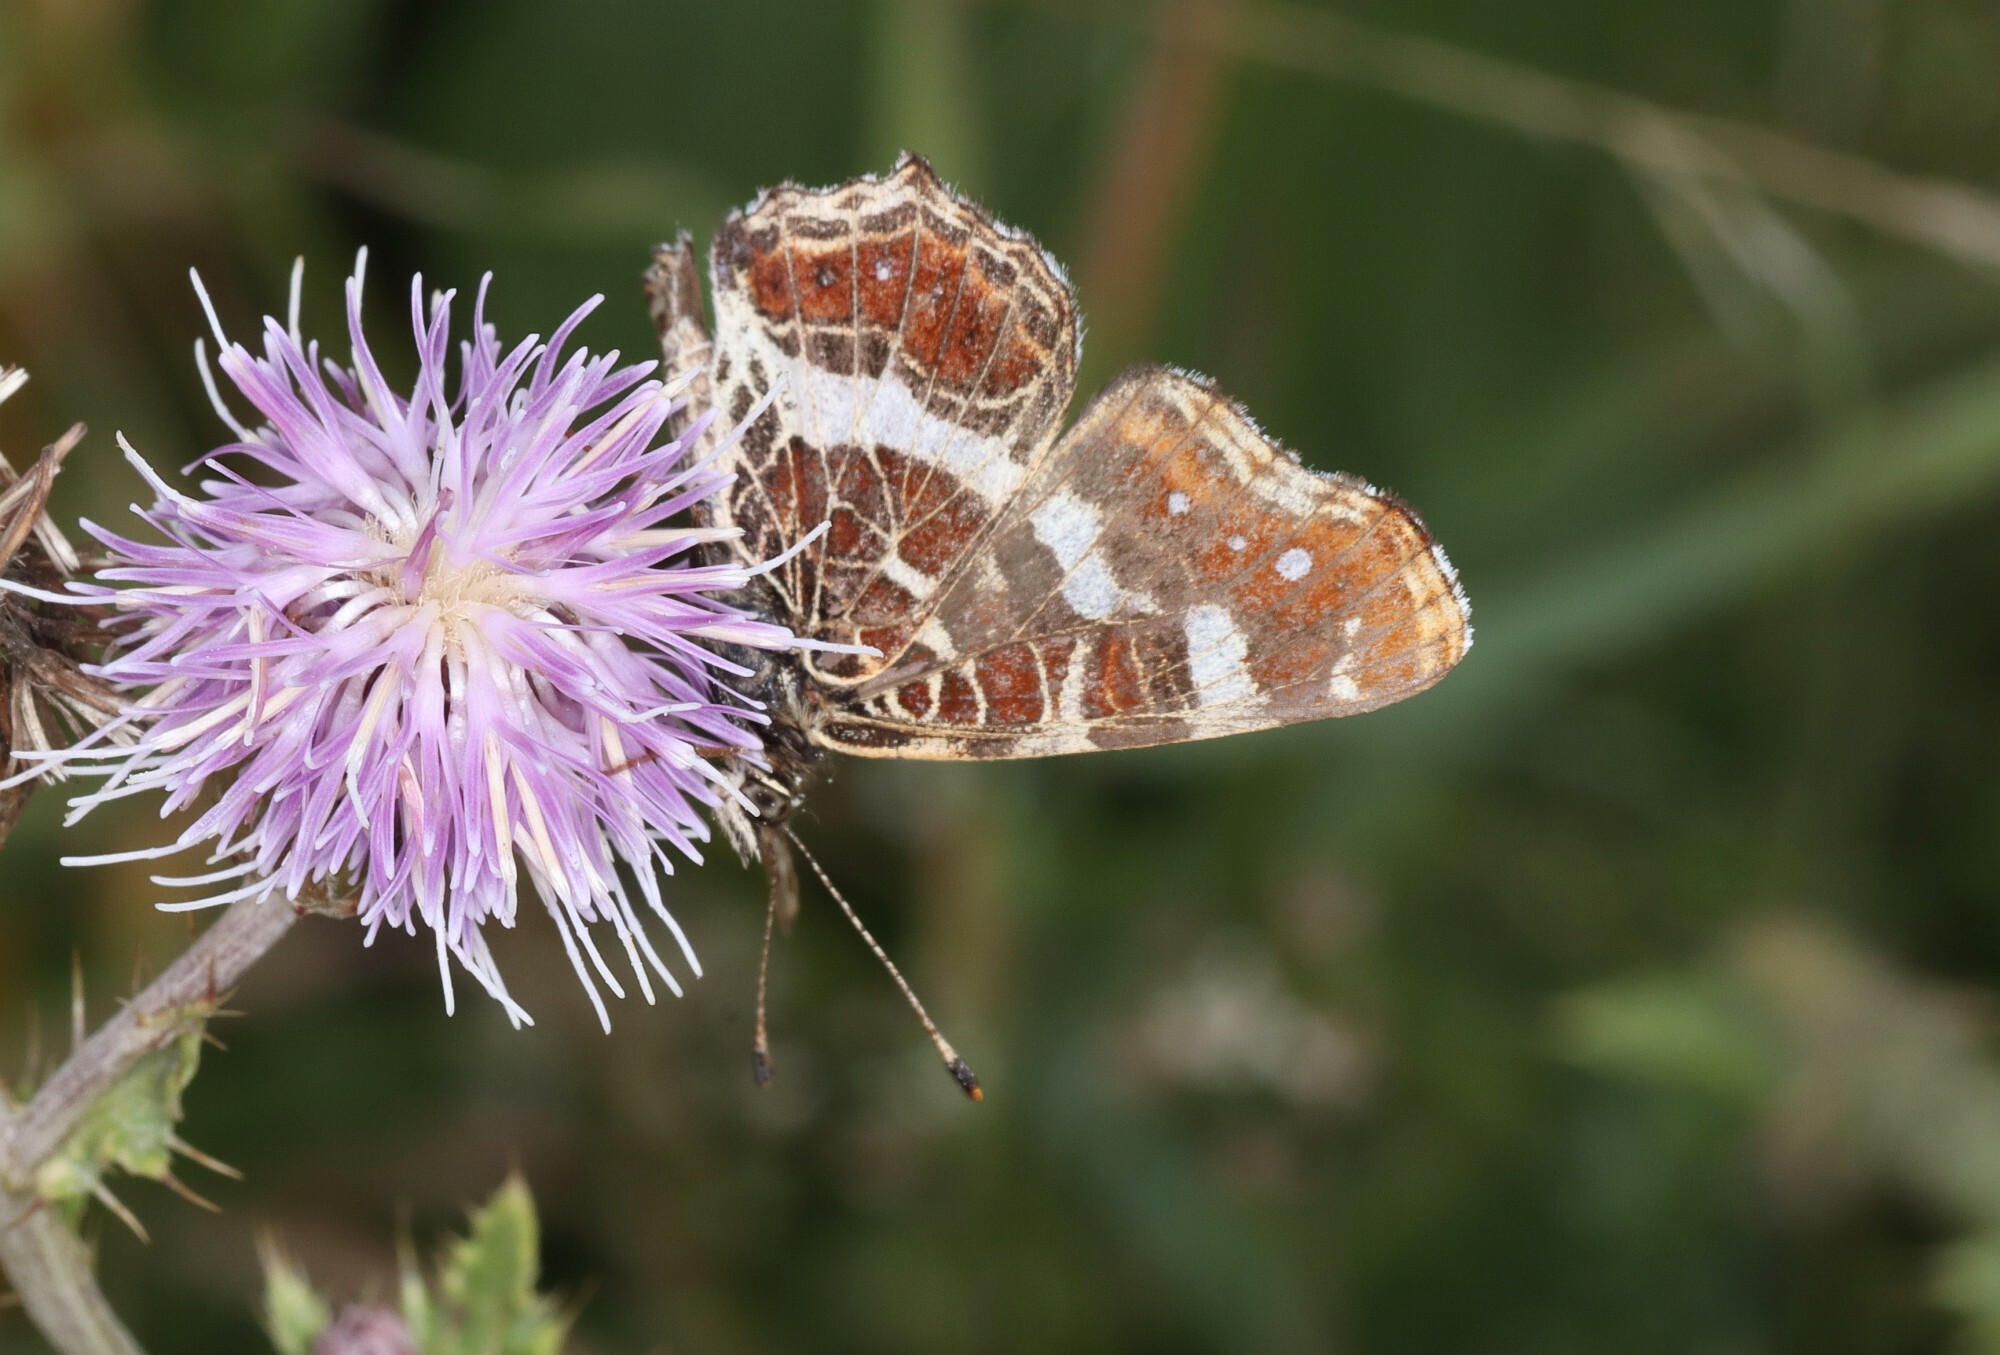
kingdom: Animalia
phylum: Arthropoda
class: Insecta
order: Lepidoptera
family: Nymphalidae
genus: Araschnia
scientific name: Araschnia levana
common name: Map butterfly
